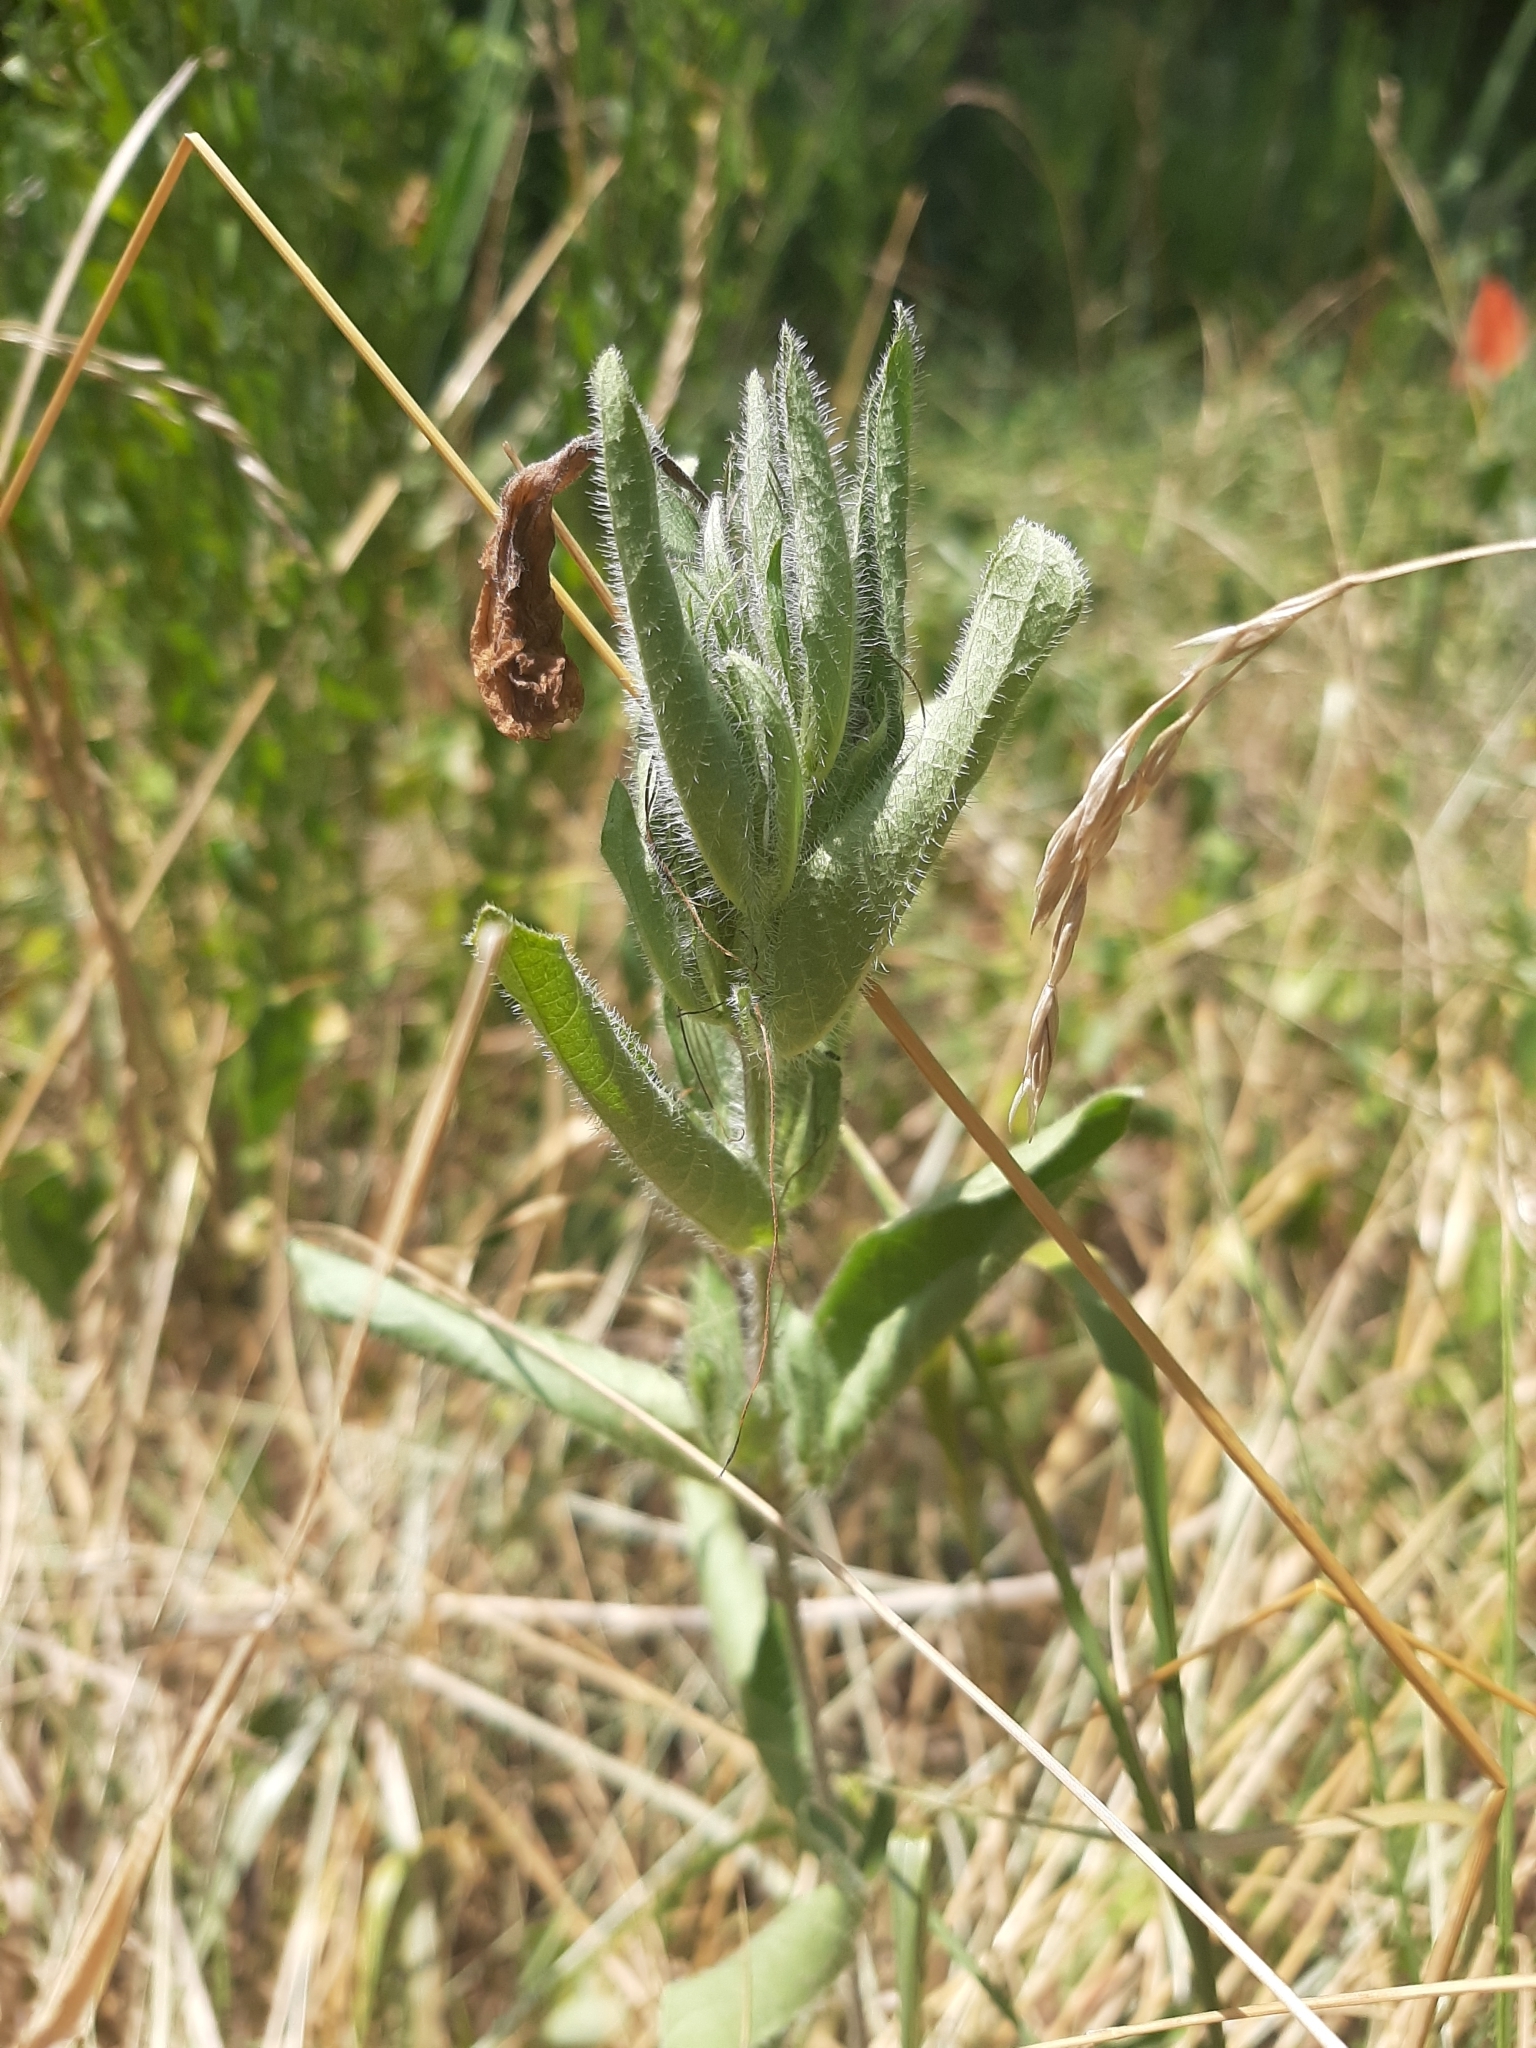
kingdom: Plantae
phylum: Tracheophyta
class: Magnoliopsida
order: Lamiales
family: Acanthaceae
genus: Ruellia
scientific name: Ruellia humilis
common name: Fringe-leaf ruellia
